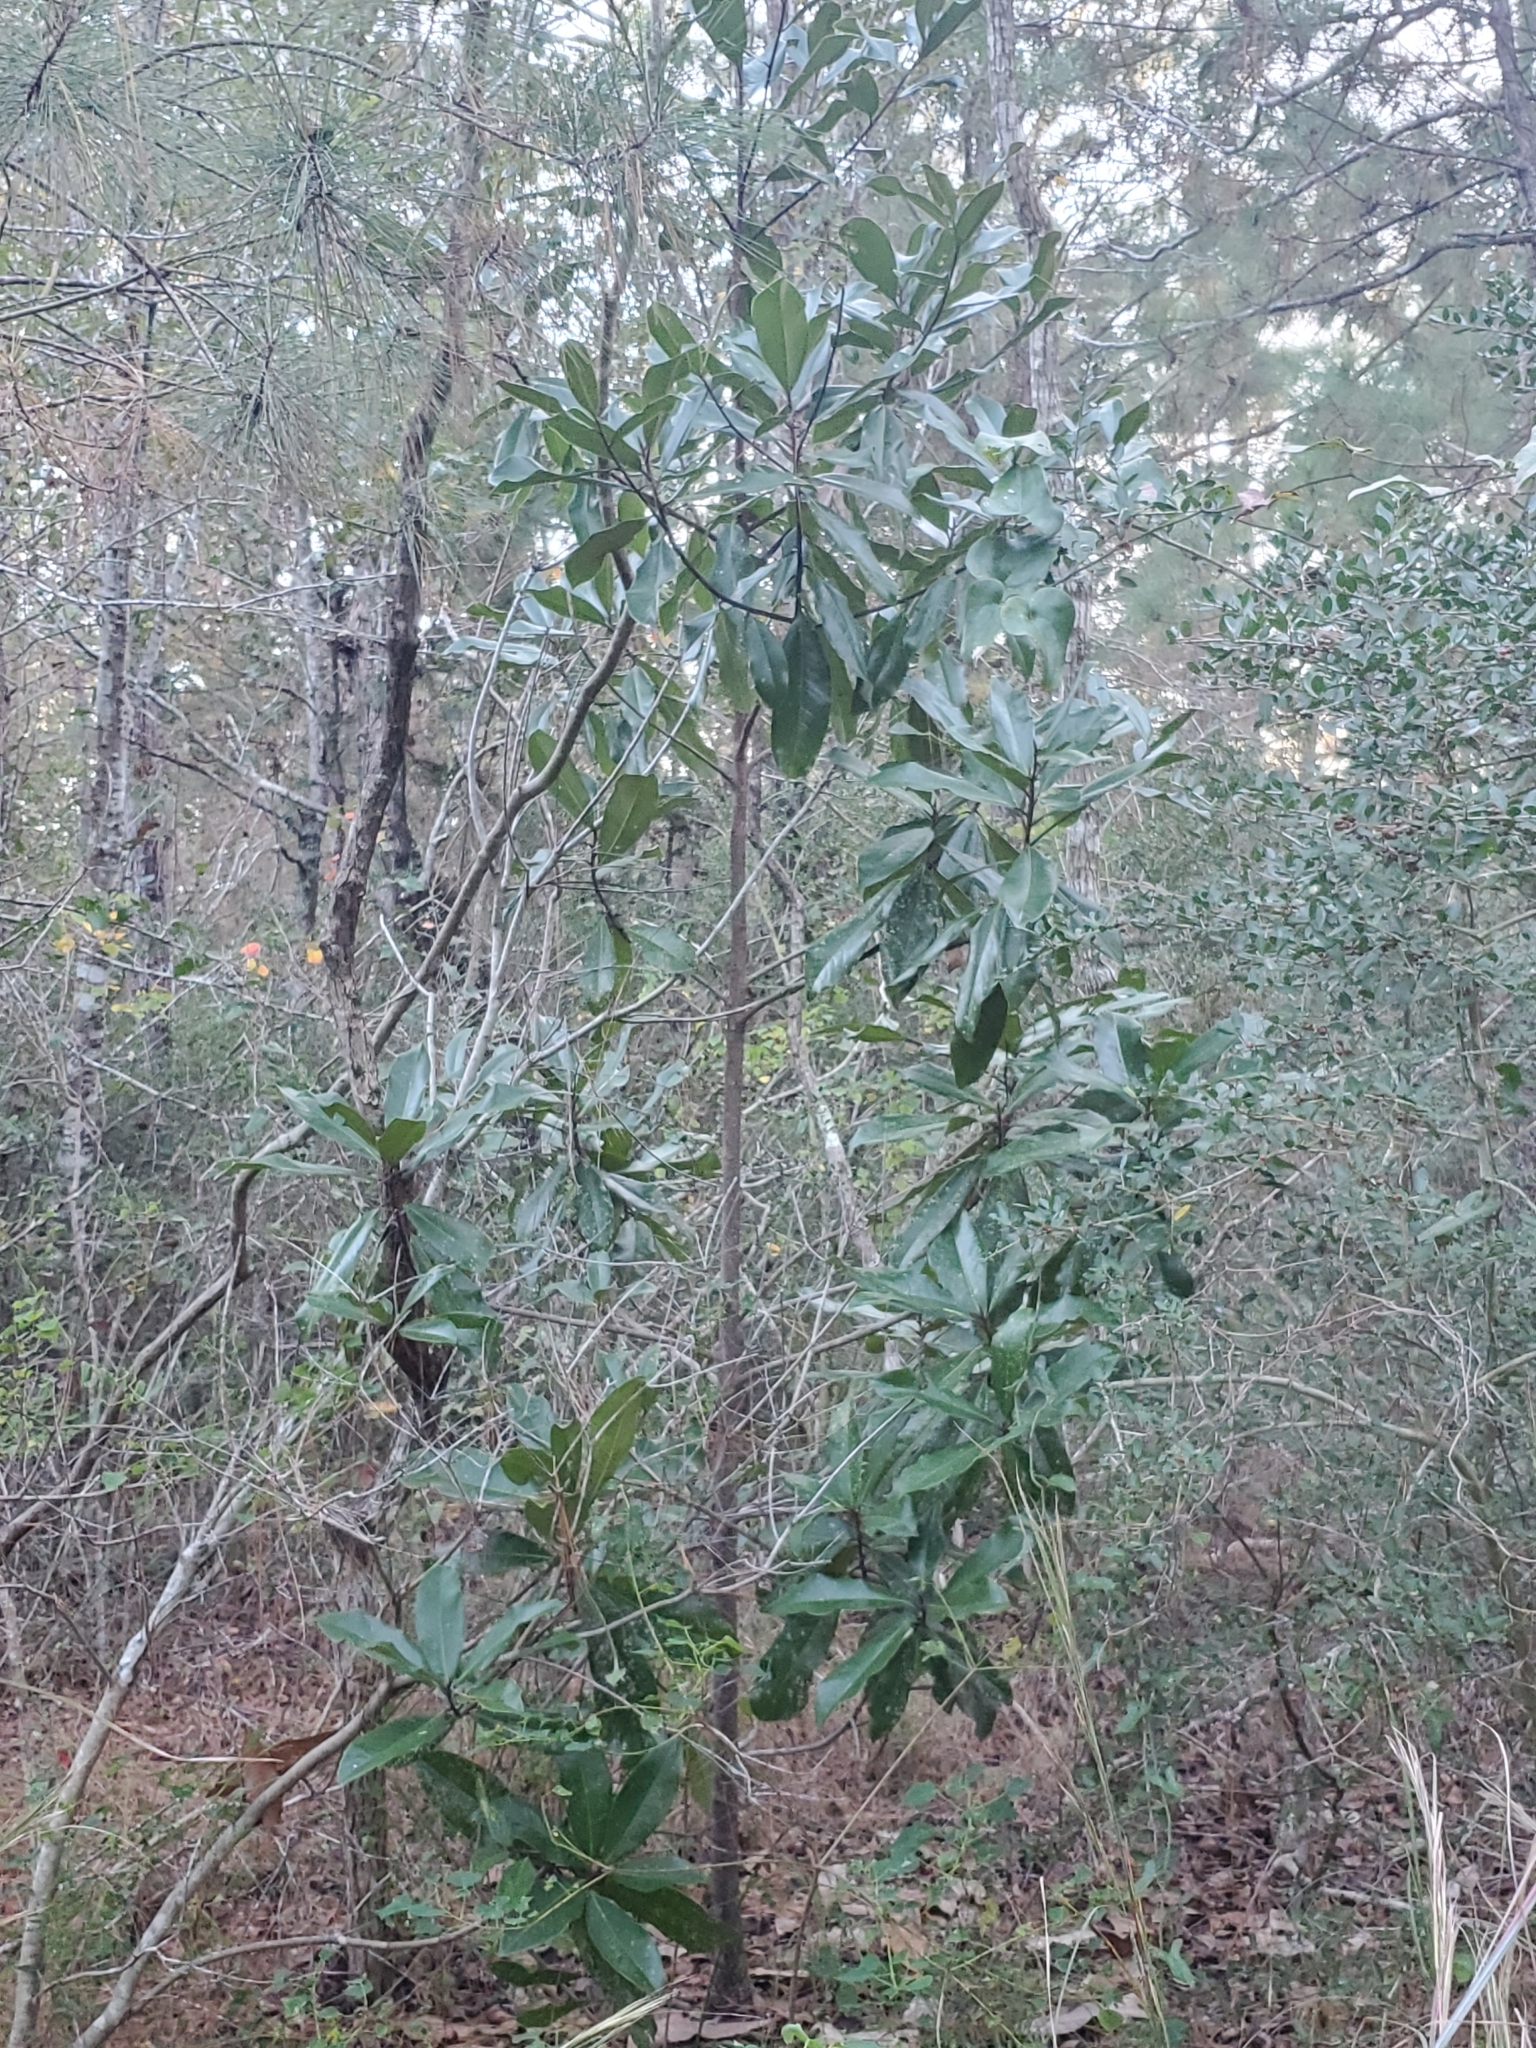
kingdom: Plantae
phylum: Tracheophyta
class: Magnoliopsida
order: Magnoliales
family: Magnoliaceae
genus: Magnolia
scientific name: Magnolia grandiflora
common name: Southern magnolia
